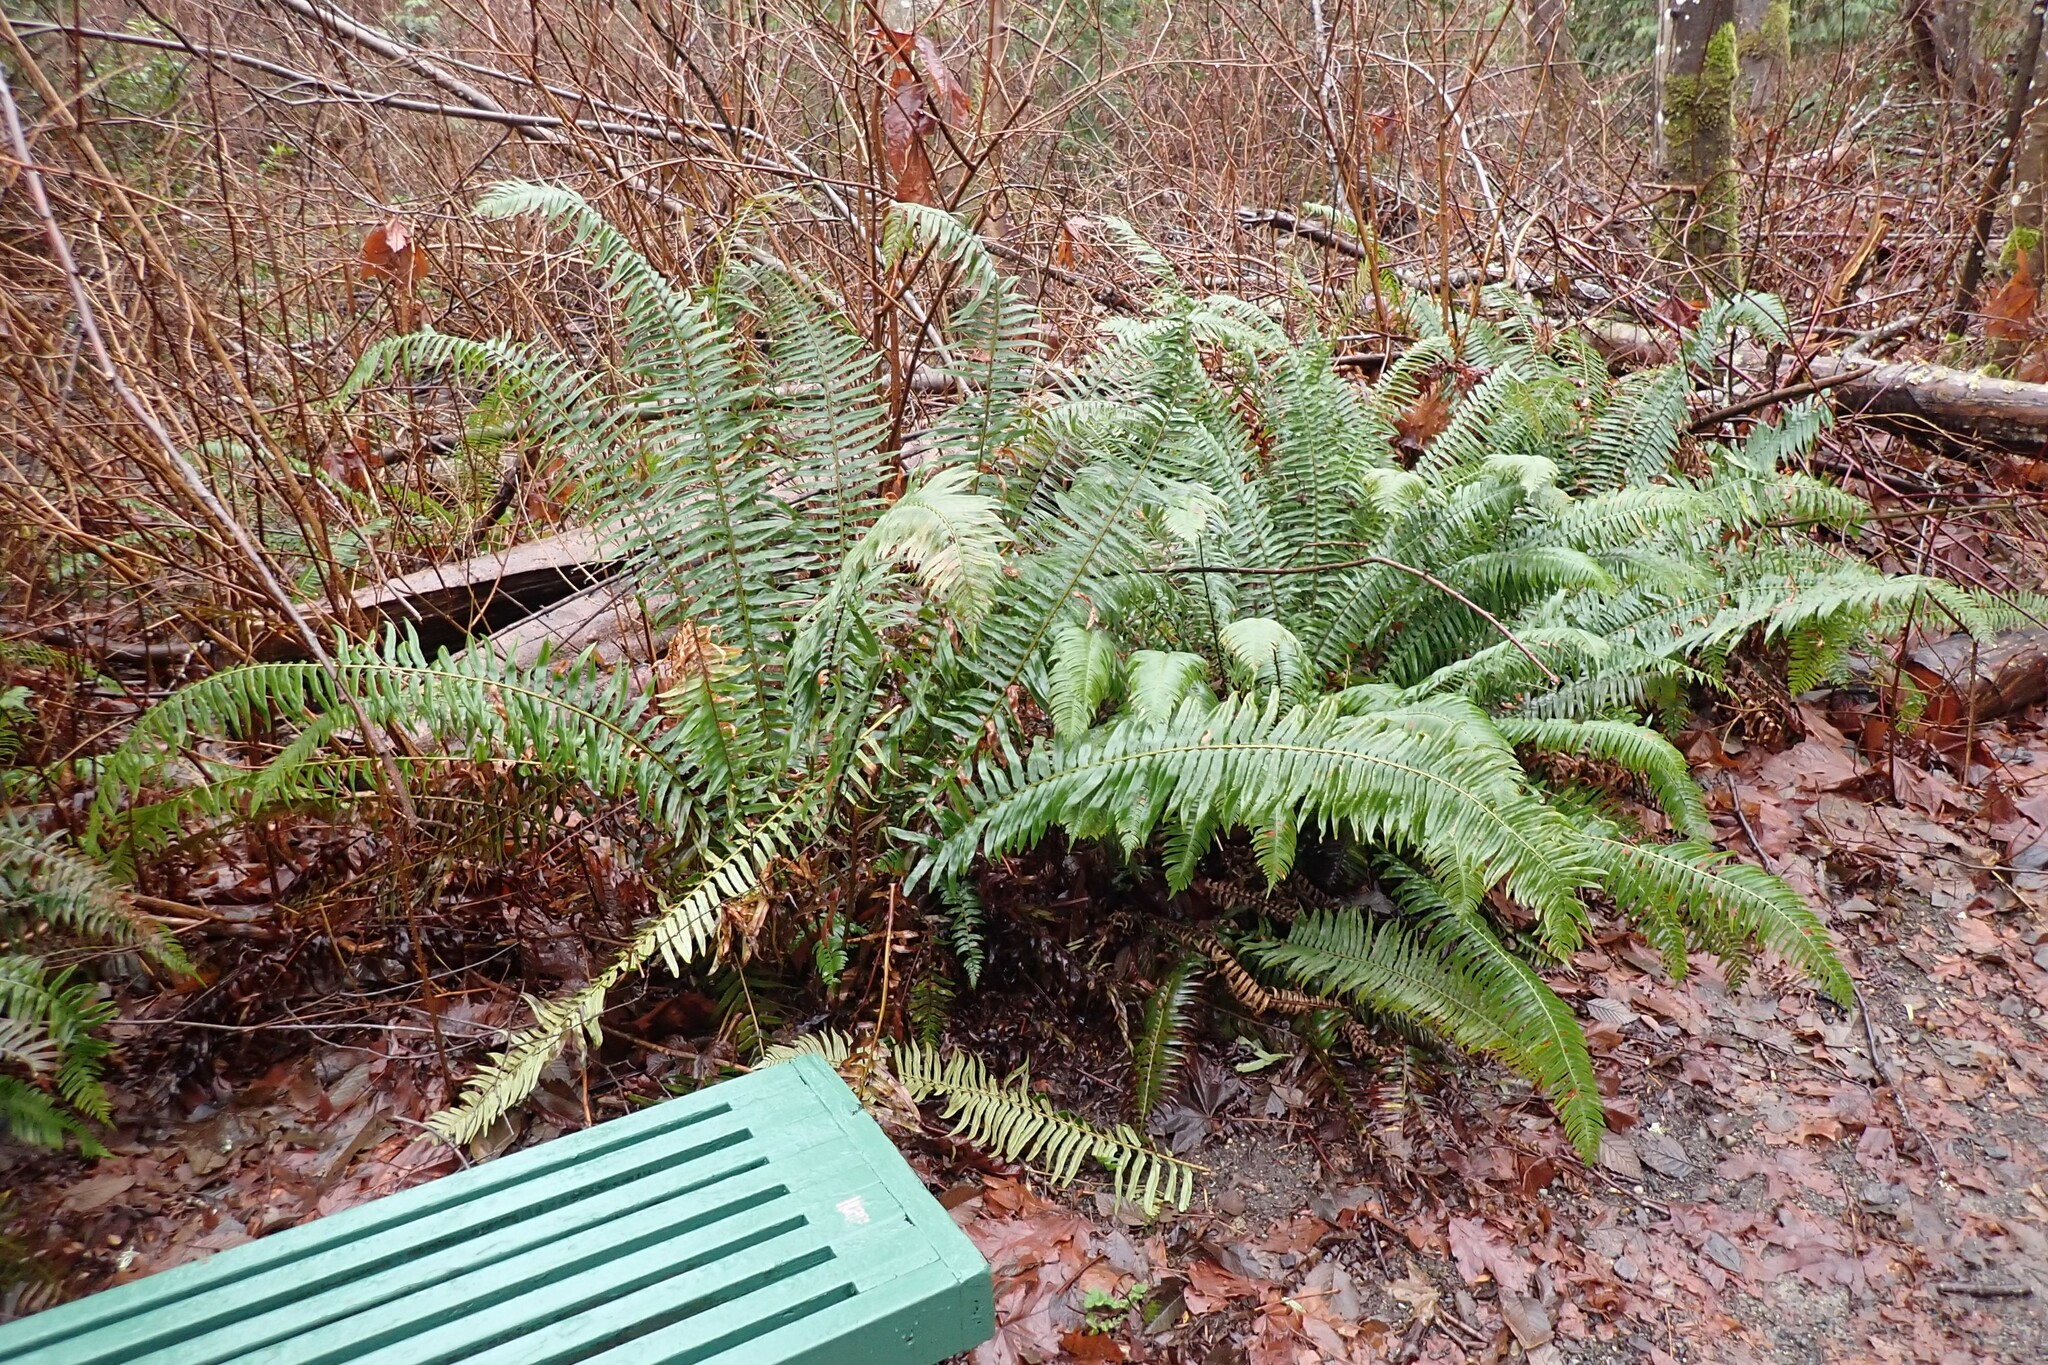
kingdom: Plantae
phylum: Tracheophyta
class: Polypodiopsida
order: Polypodiales
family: Dryopteridaceae
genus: Polystichum
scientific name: Polystichum munitum
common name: Western sword-fern
